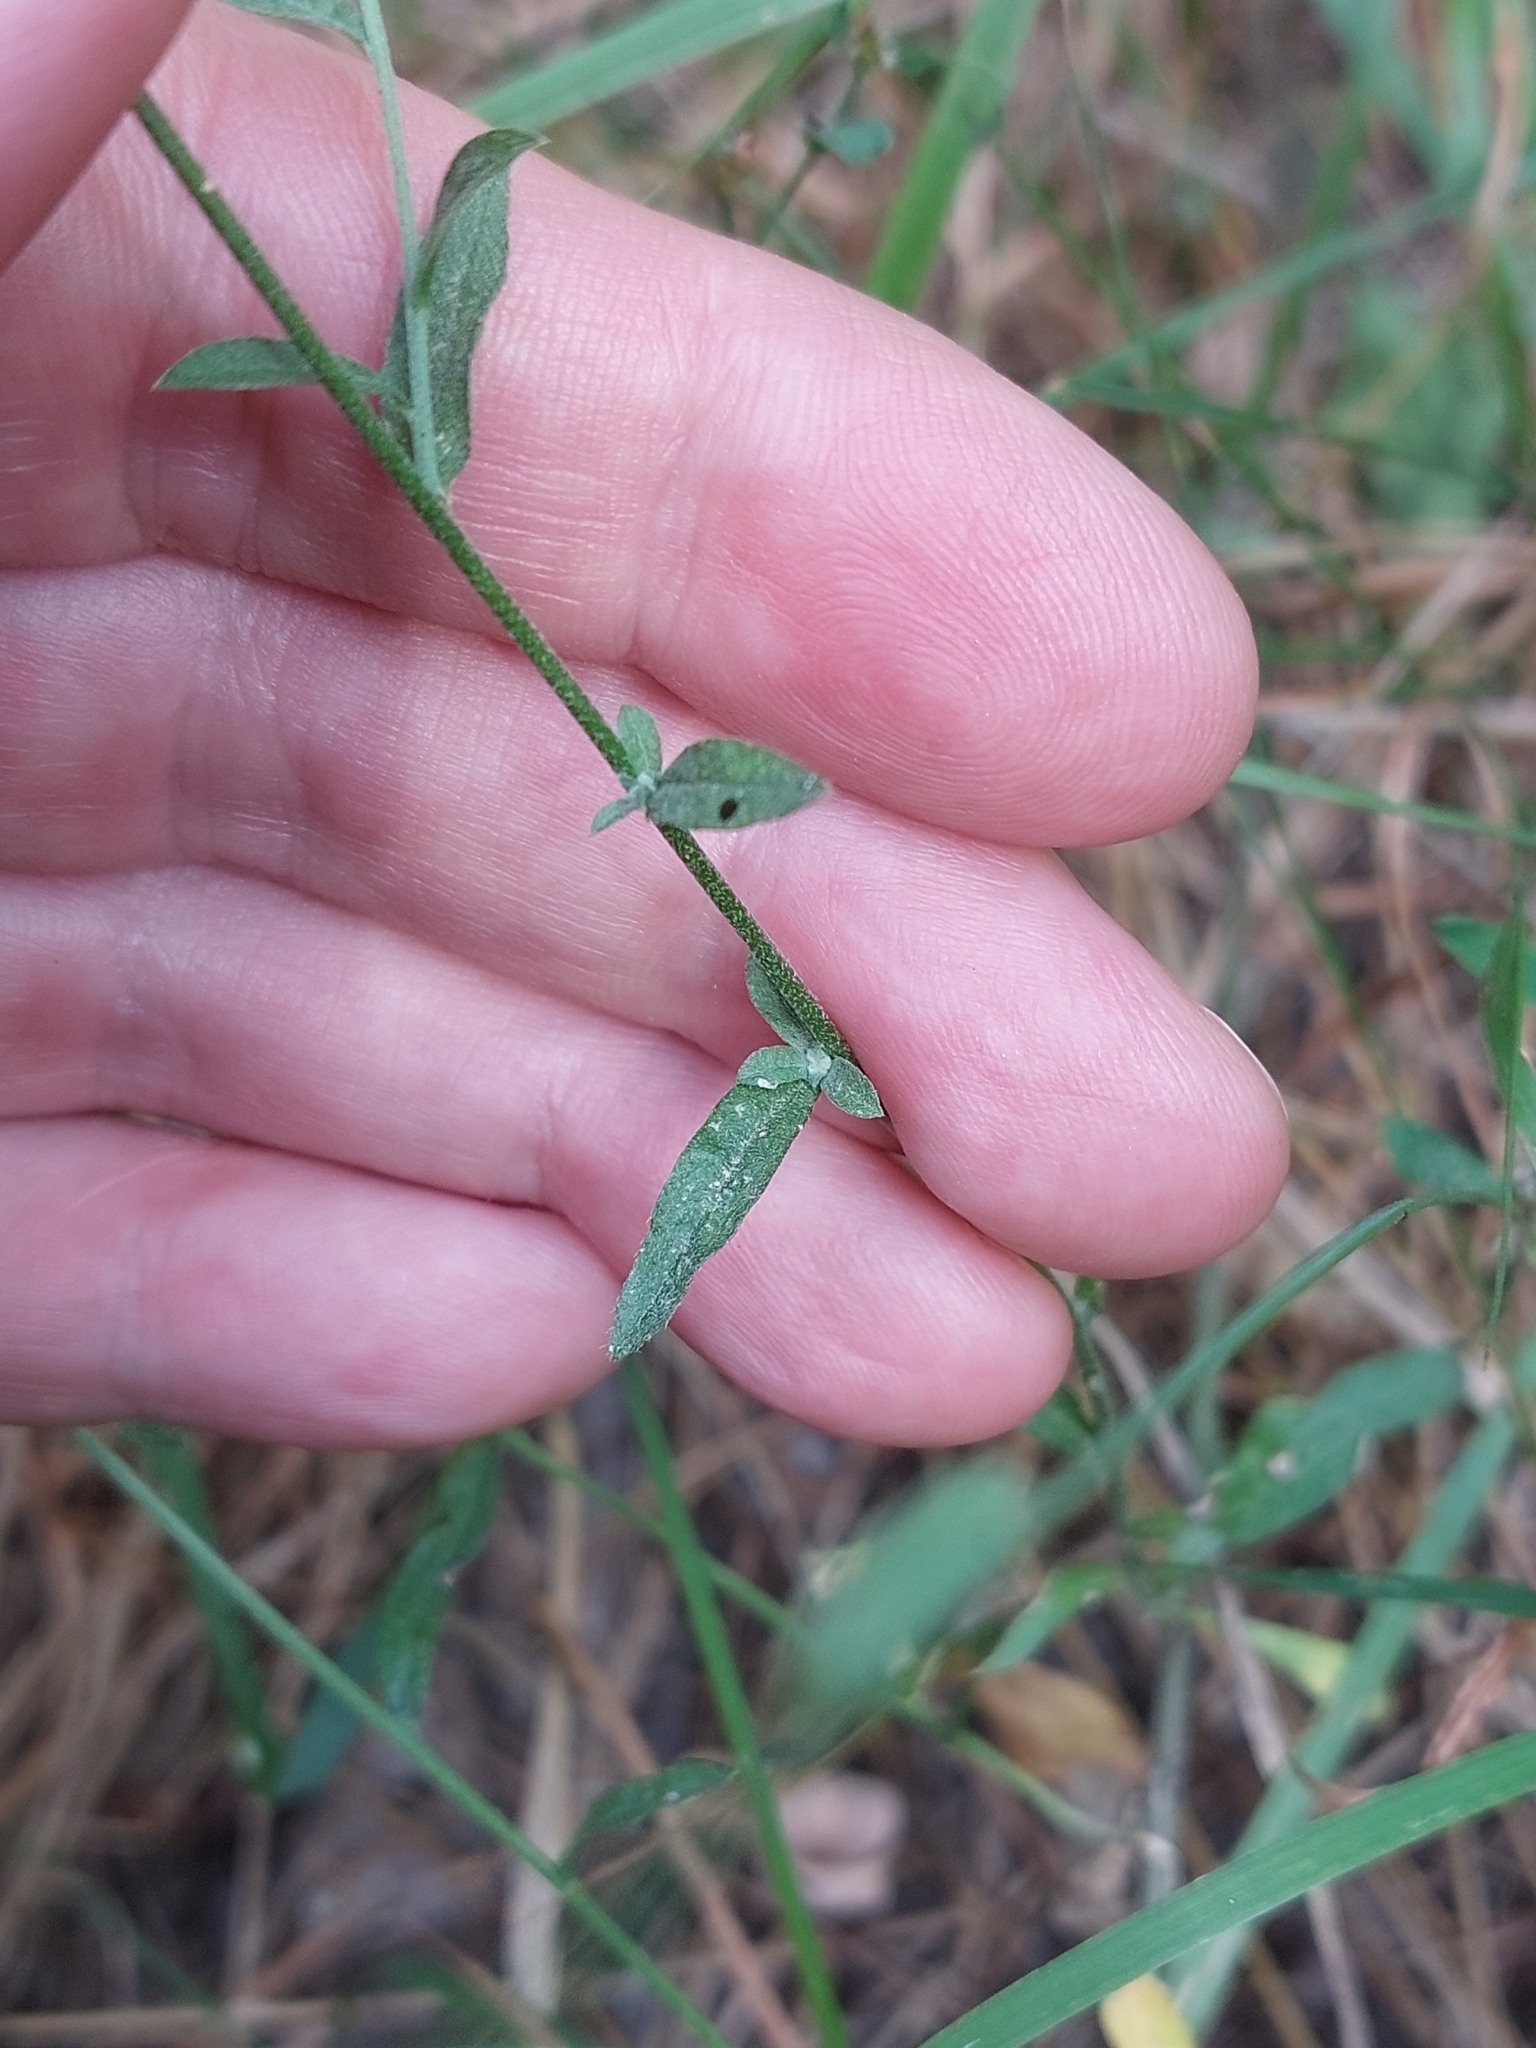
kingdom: Plantae
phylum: Tracheophyta
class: Magnoliopsida
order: Brassicales
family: Brassicaceae
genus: Berteroa
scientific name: Berteroa incana
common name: Hoary alison
